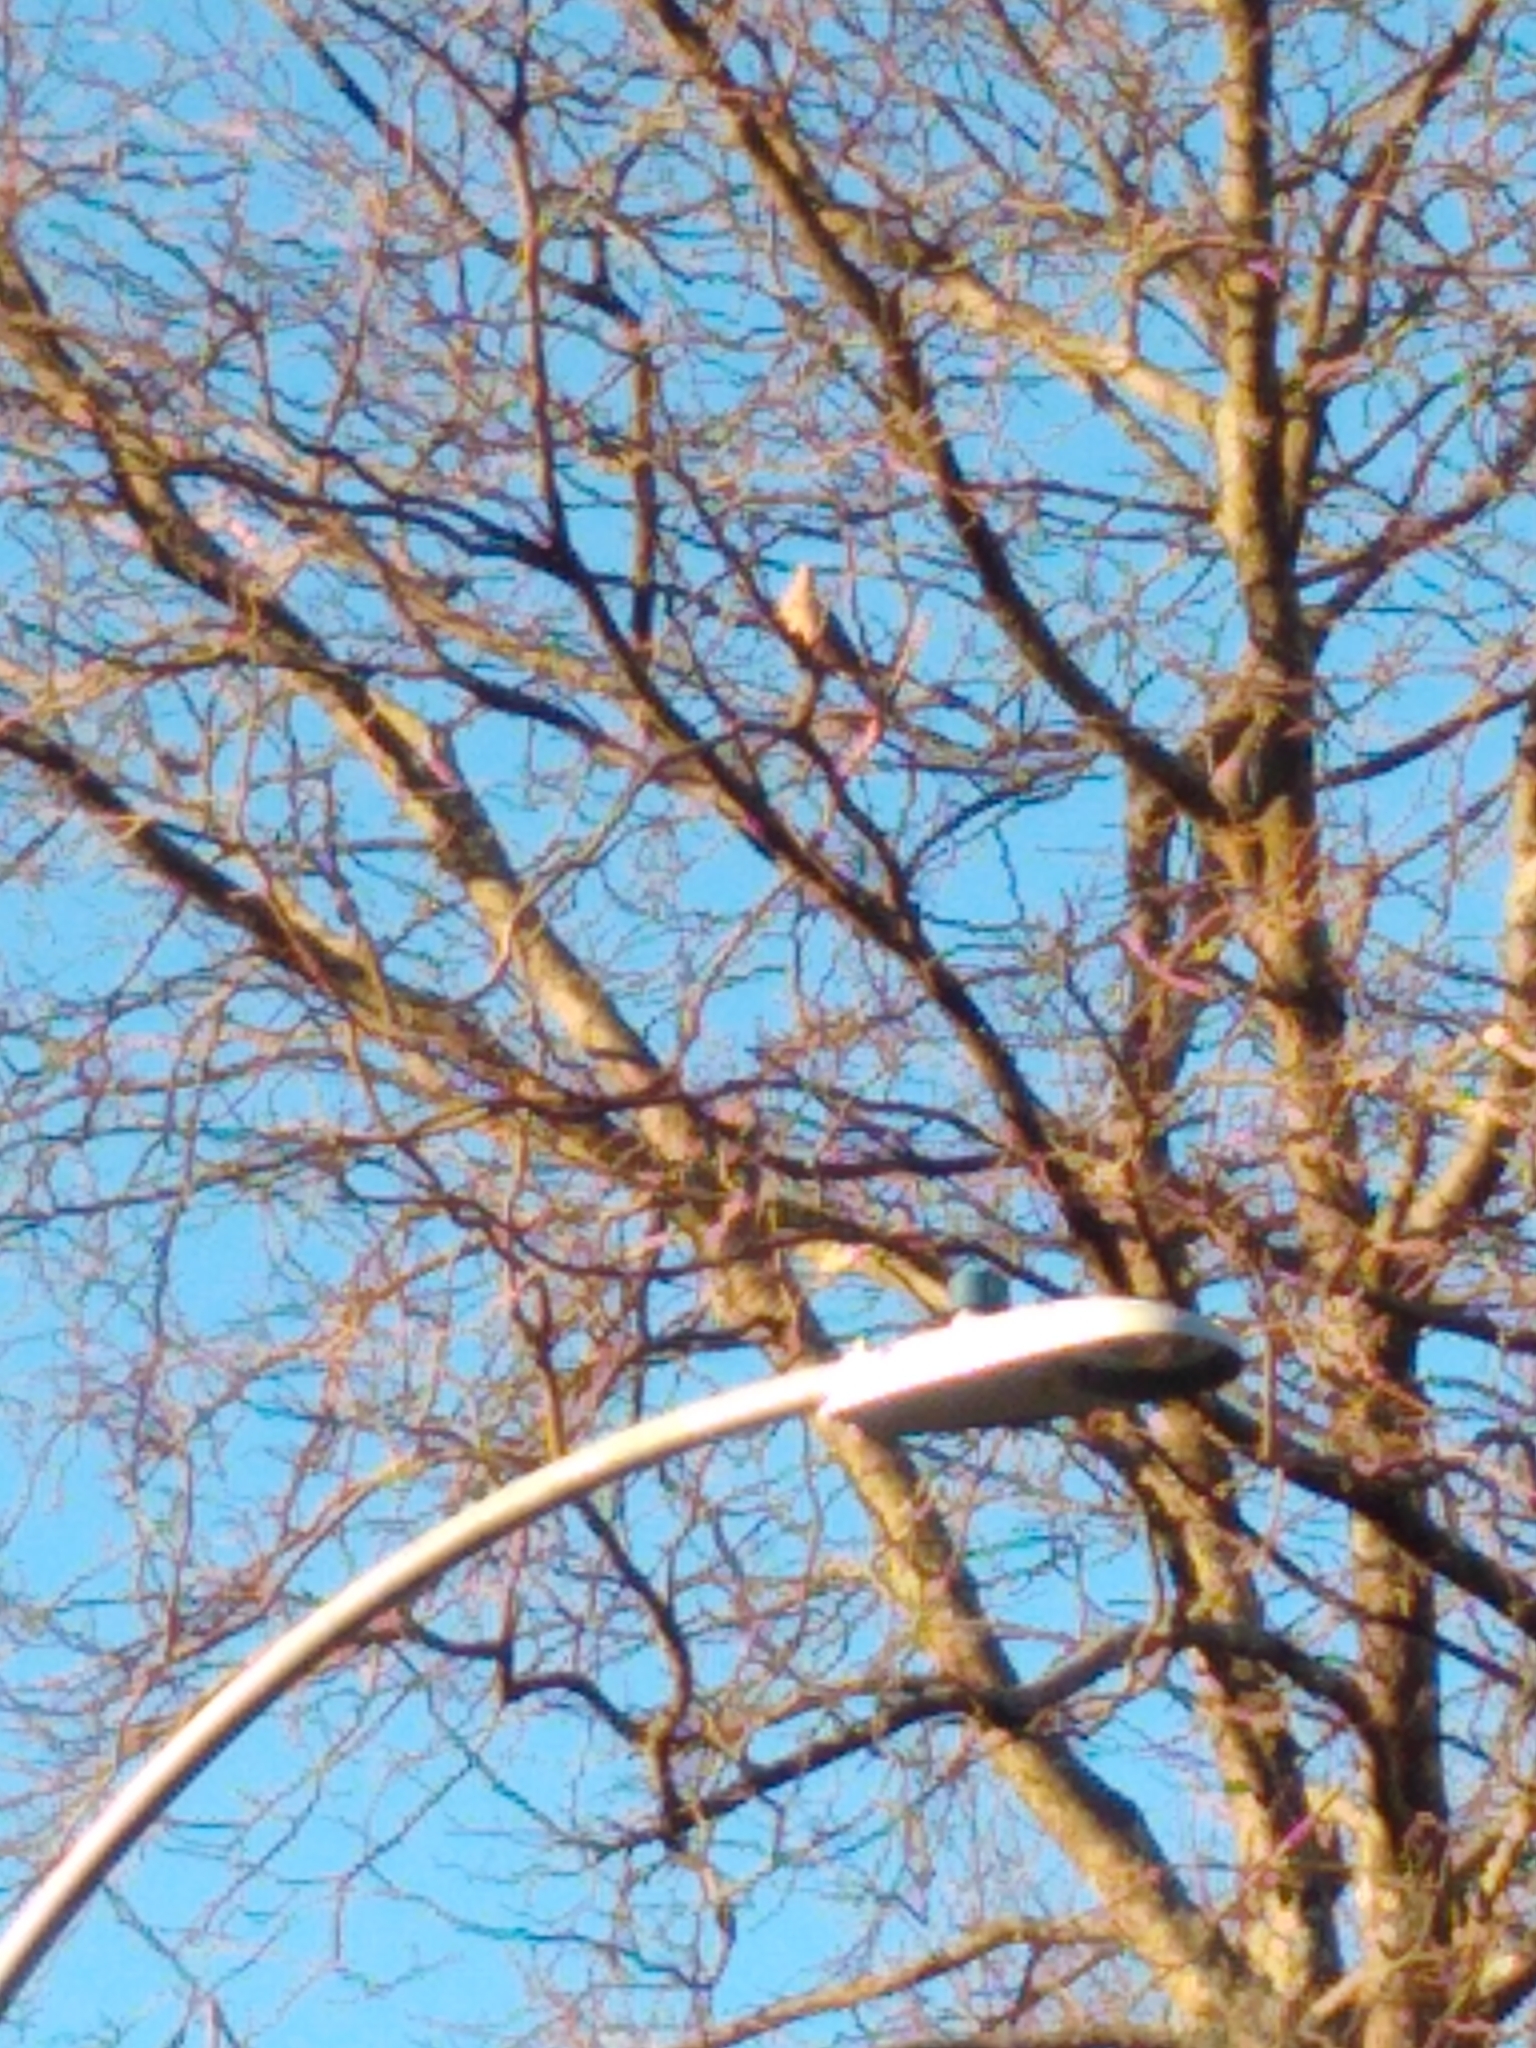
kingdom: Animalia
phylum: Chordata
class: Aves
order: Columbiformes
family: Columbidae
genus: Zenaida
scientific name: Zenaida macroura
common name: Mourning dove
